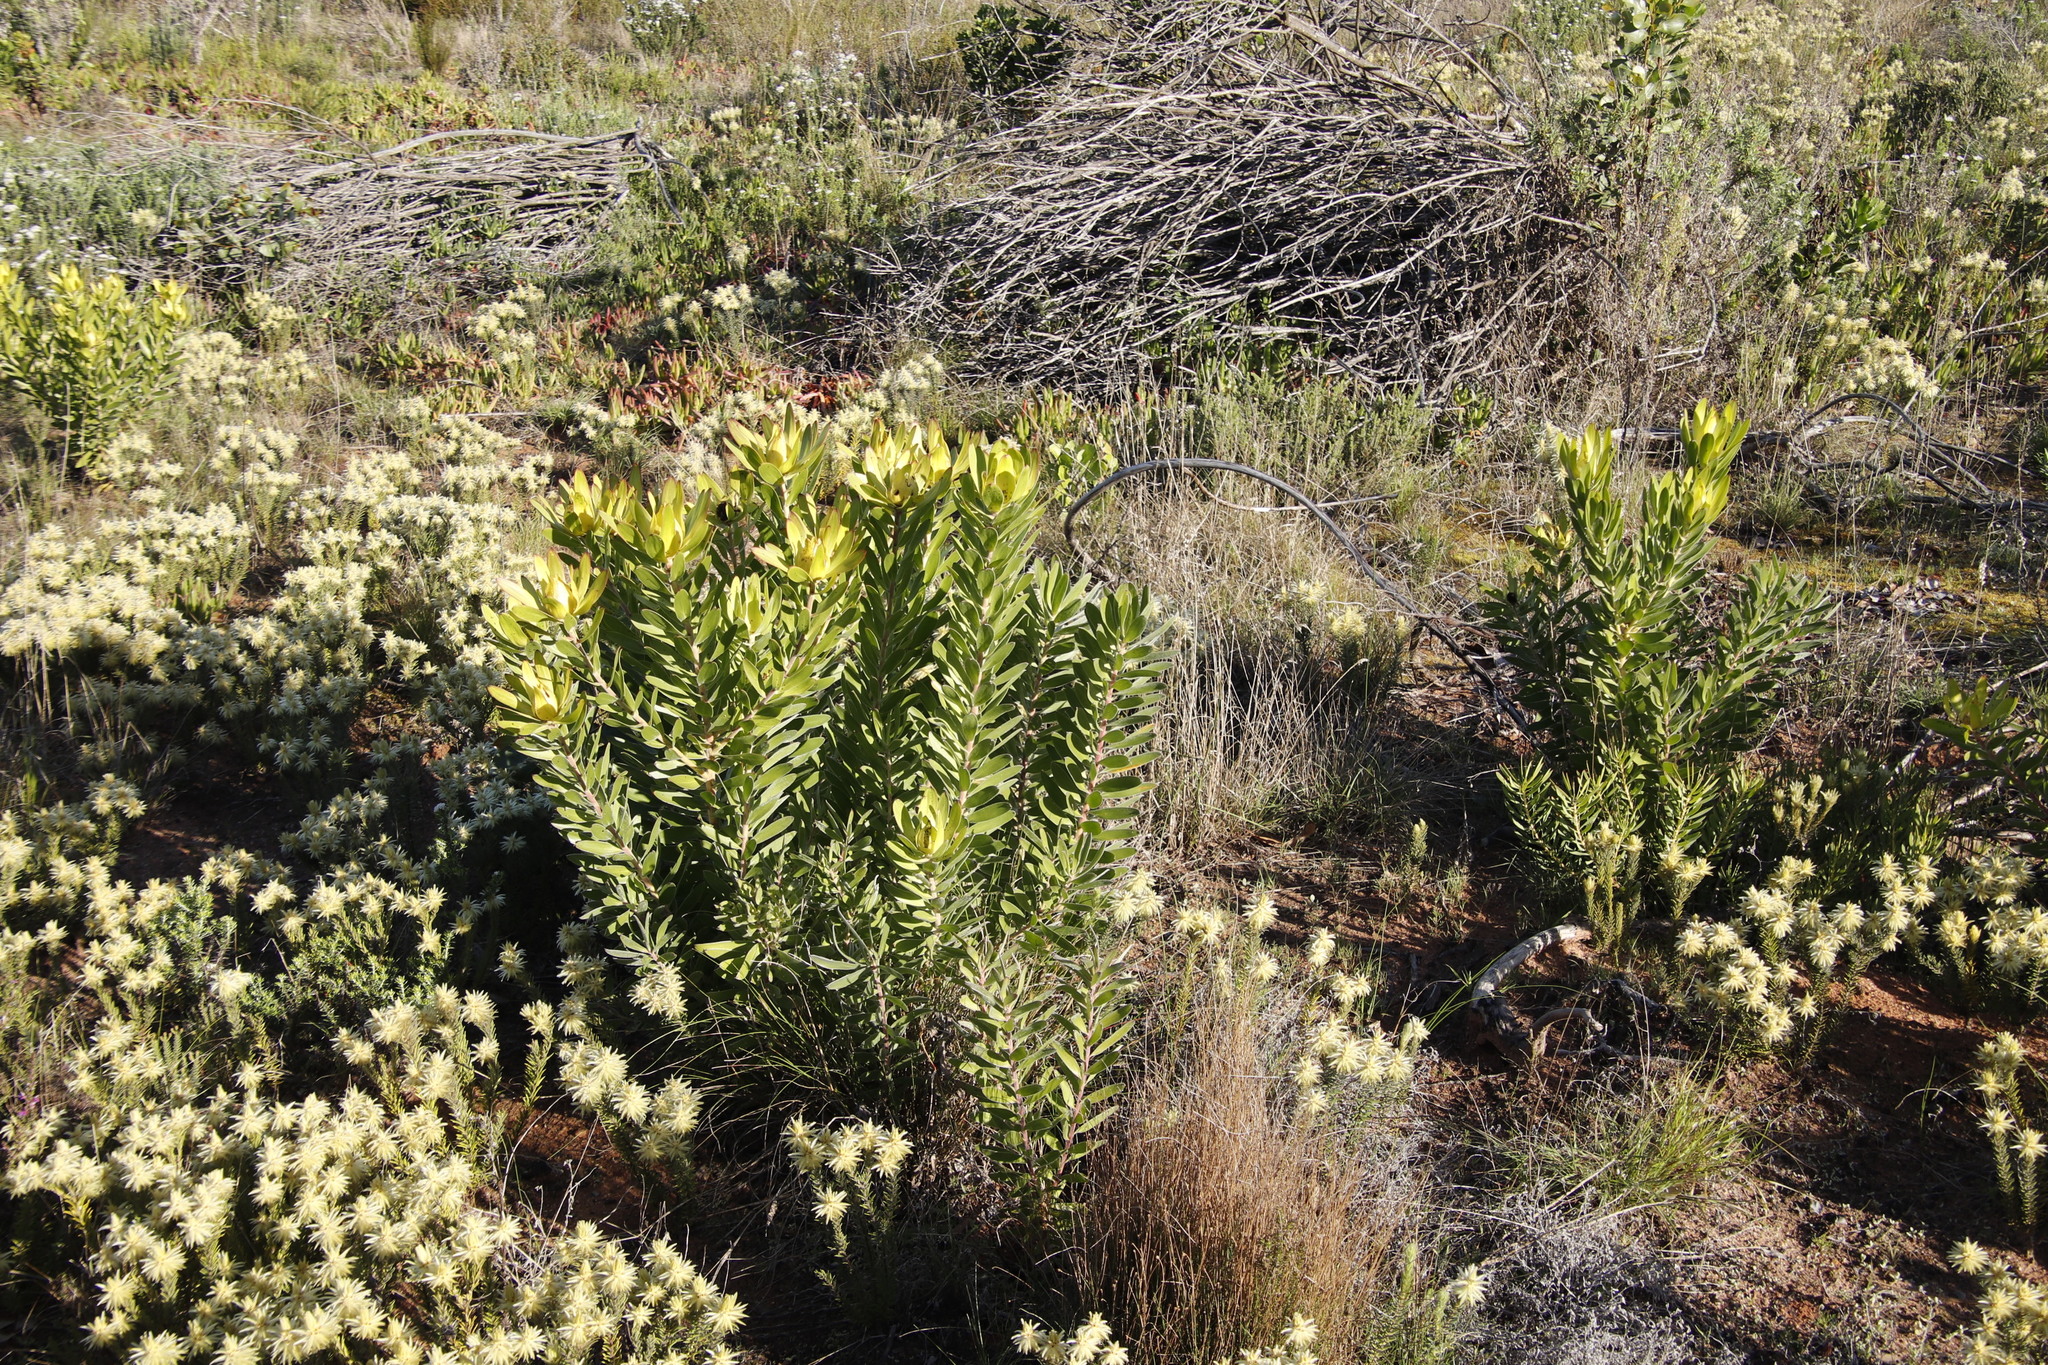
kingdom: Plantae
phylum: Tracheophyta
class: Magnoliopsida
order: Proteales
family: Proteaceae
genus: Leucadendron
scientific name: Leucadendron laureolum
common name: Golden sunshinebush
